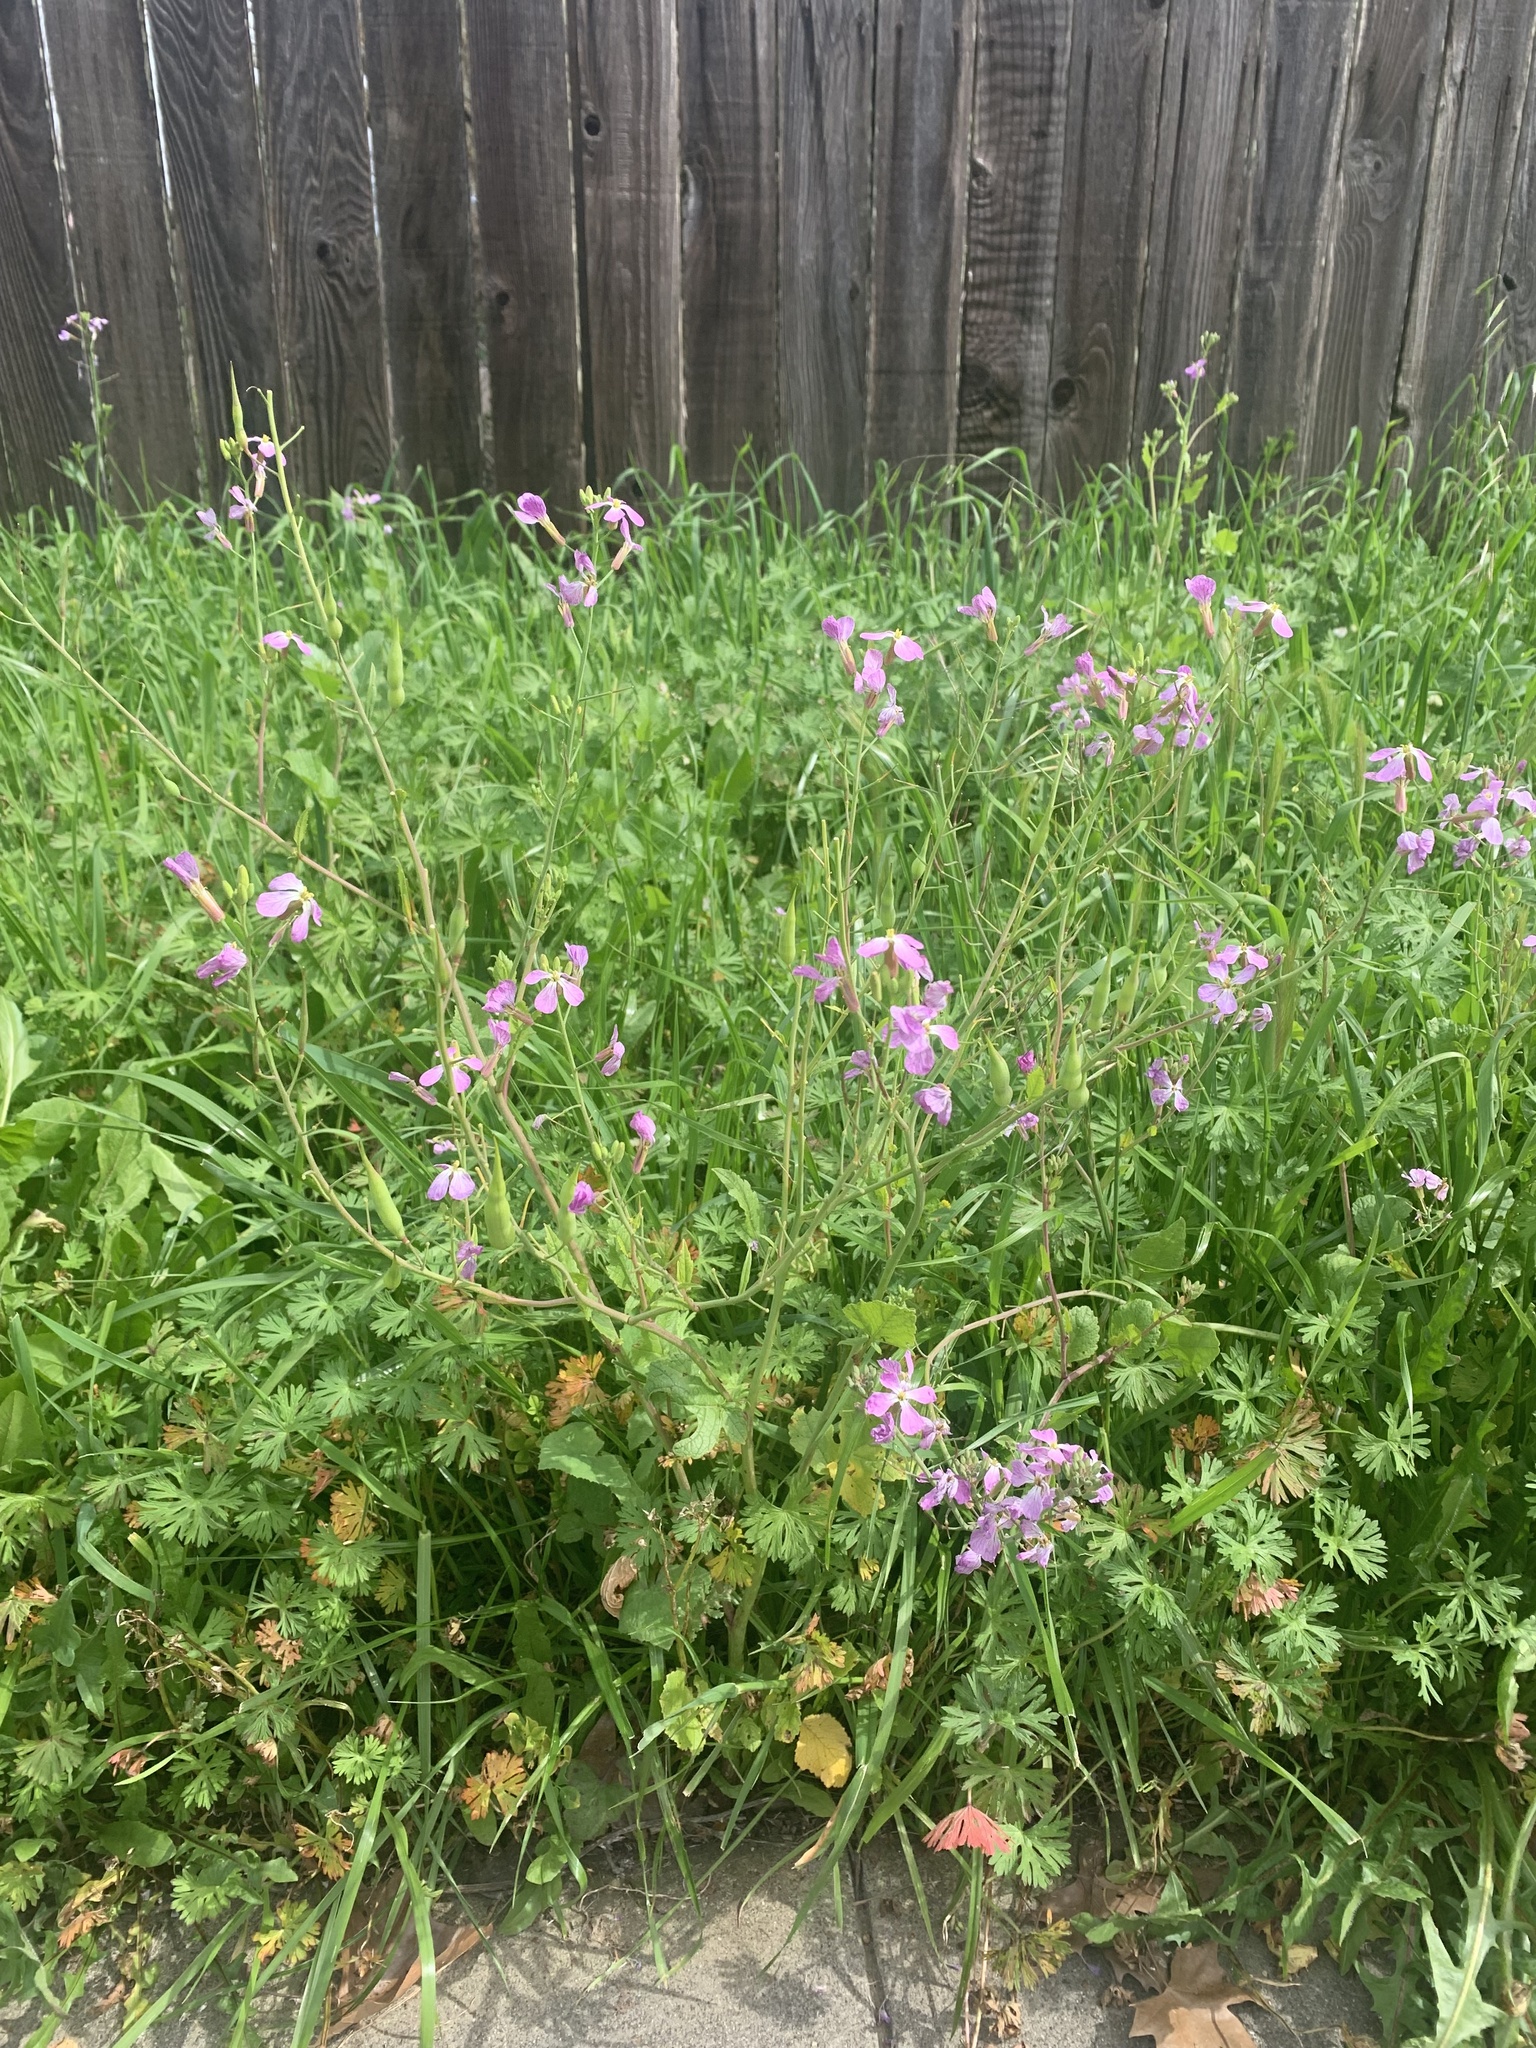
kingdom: Plantae
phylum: Tracheophyta
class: Magnoliopsida
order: Brassicales
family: Brassicaceae
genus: Raphanus
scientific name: Raphanus sativus
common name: Cultivated radish
